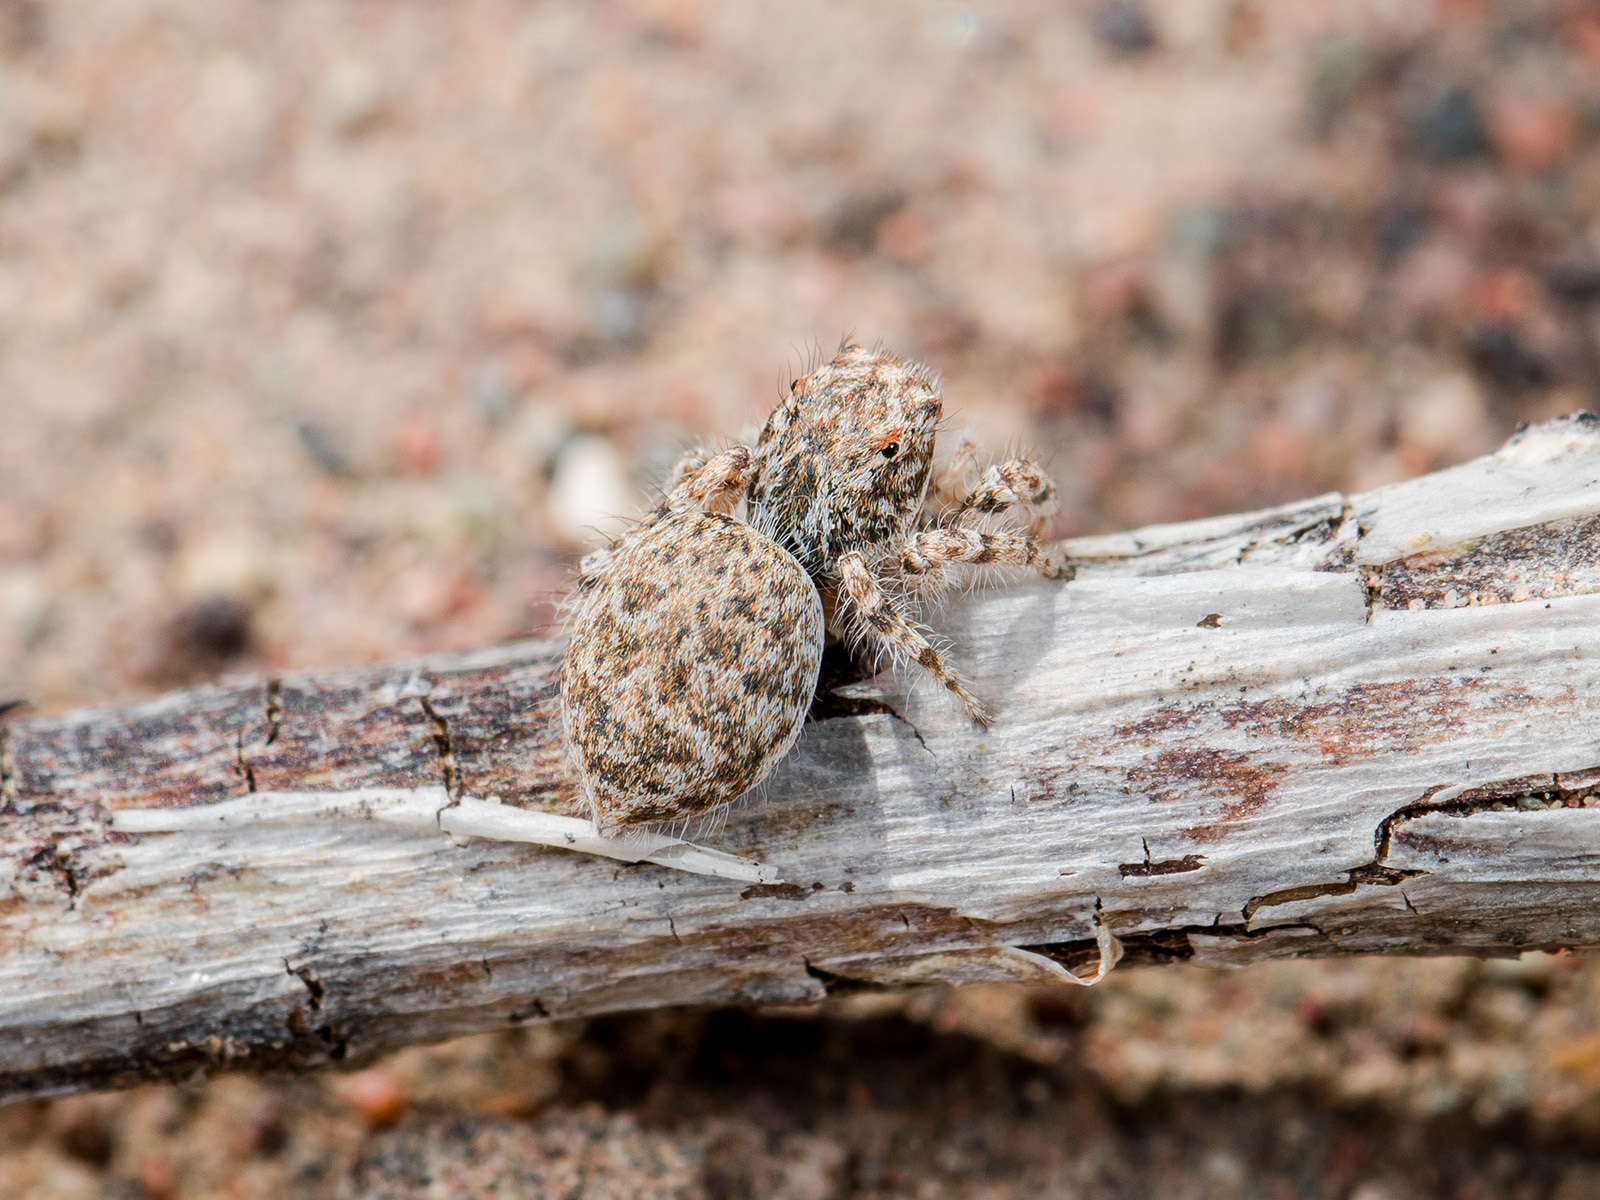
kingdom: Animalia
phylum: Arthropoda
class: Arachnida
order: Araneae
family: Salticidae
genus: Yllenus
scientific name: Yllenus uiguricus
